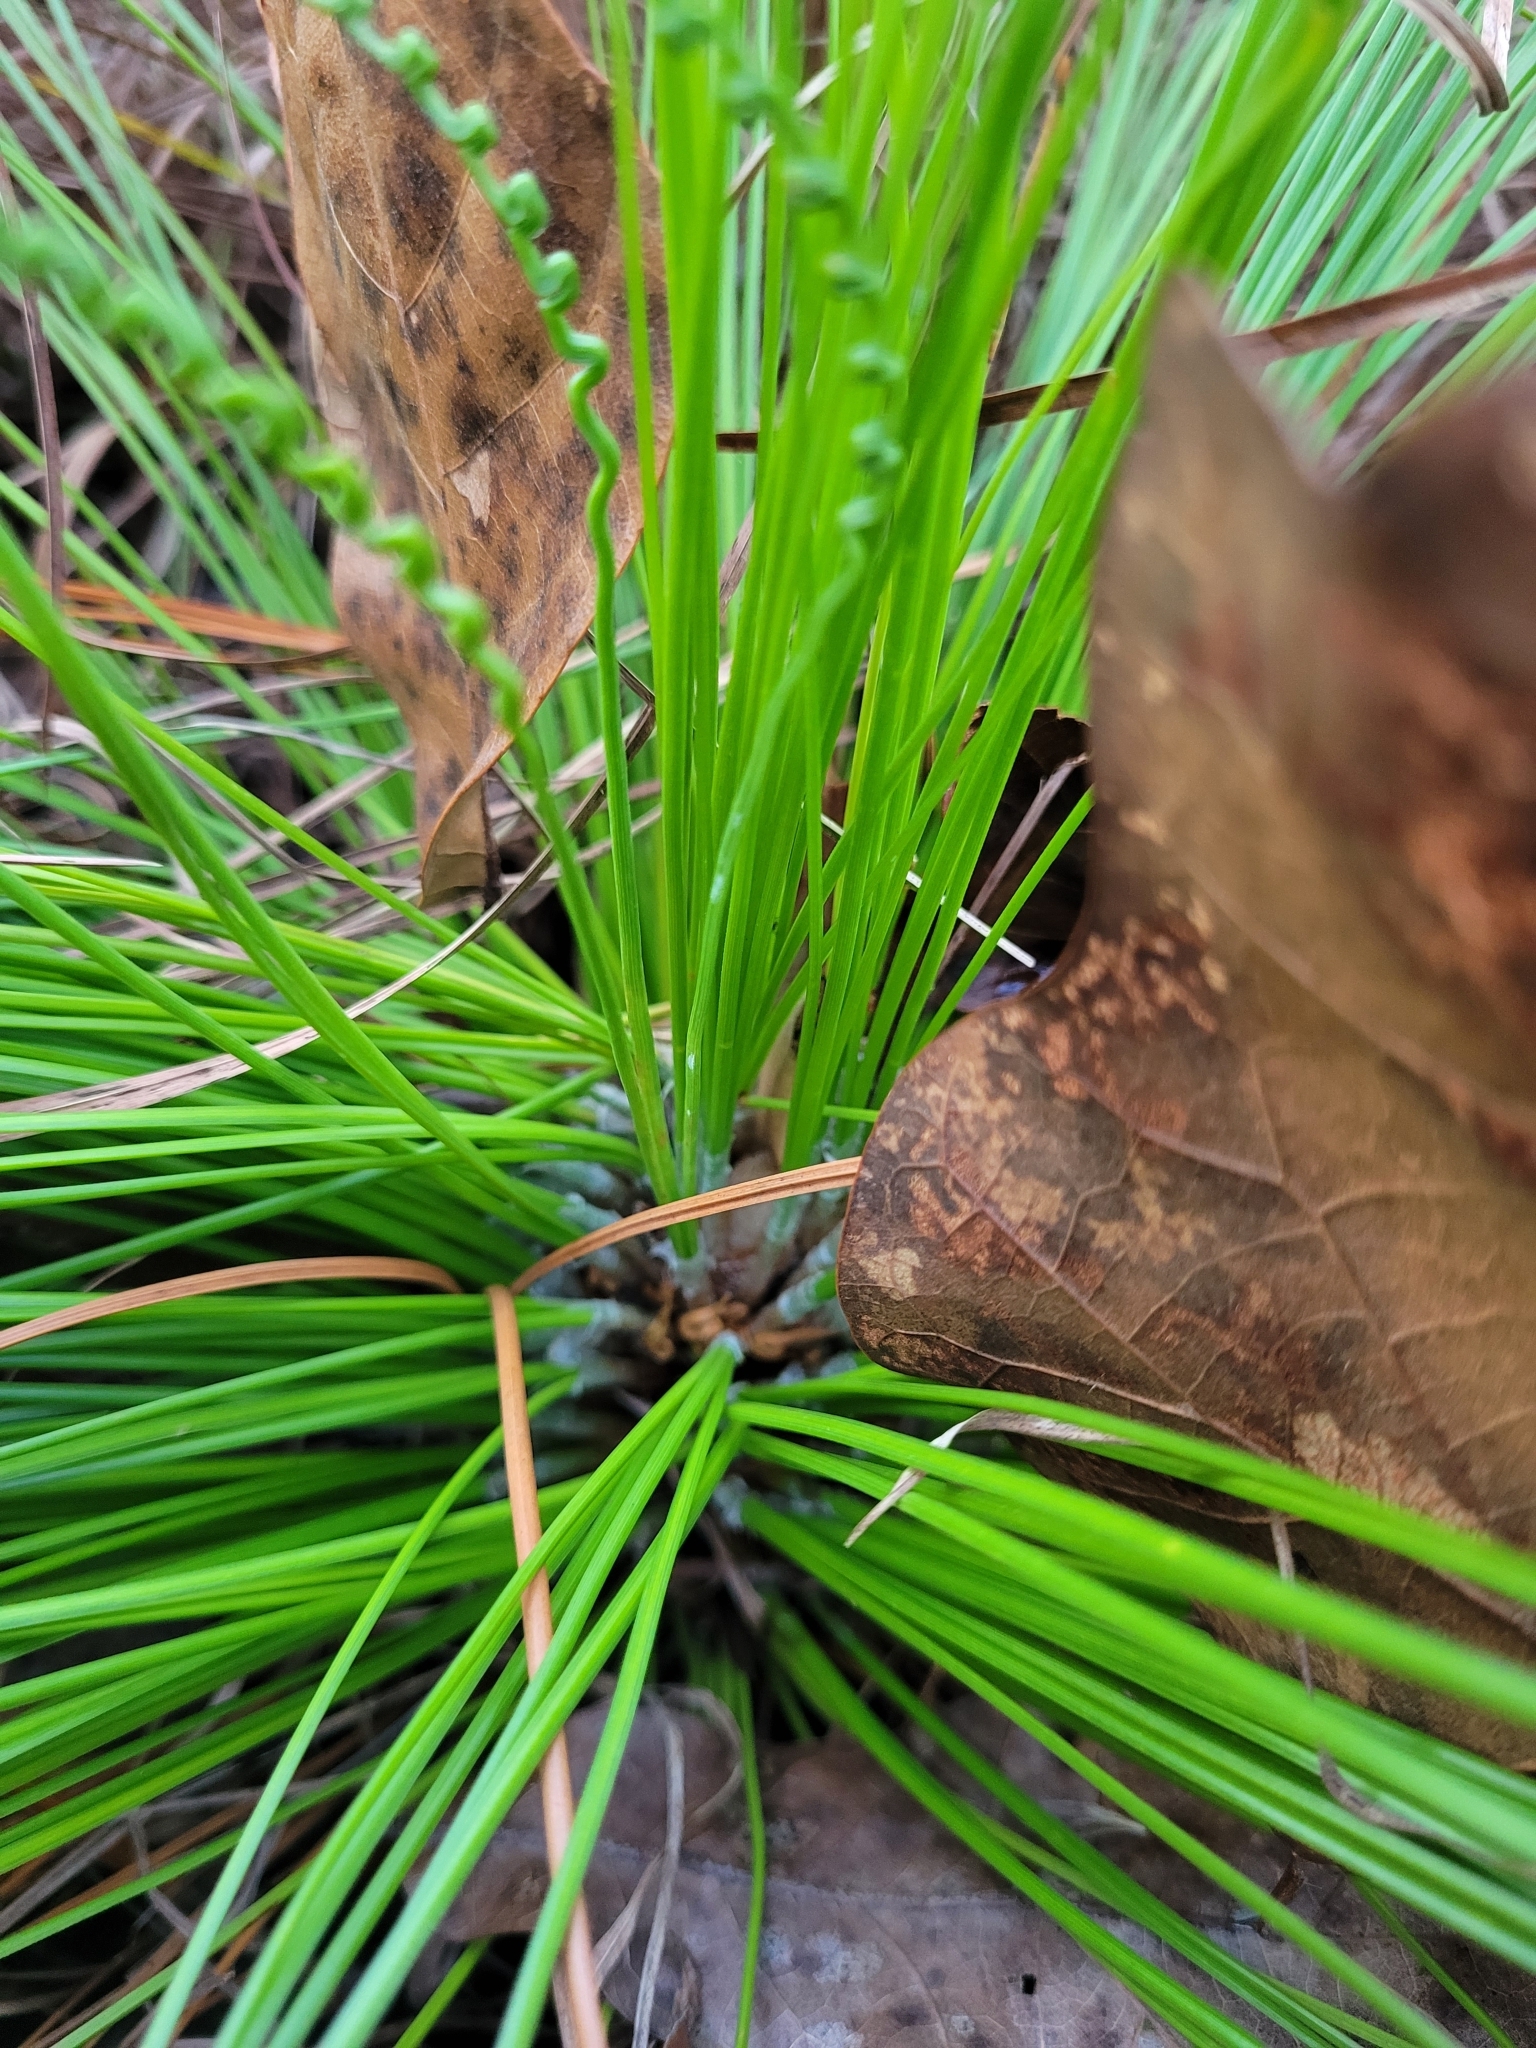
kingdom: Plantae
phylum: Tracheophyta
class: Pinopsida
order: Pinales
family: Pinaceae
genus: Pinus
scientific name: Pinus palustris
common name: Longleaf pine
